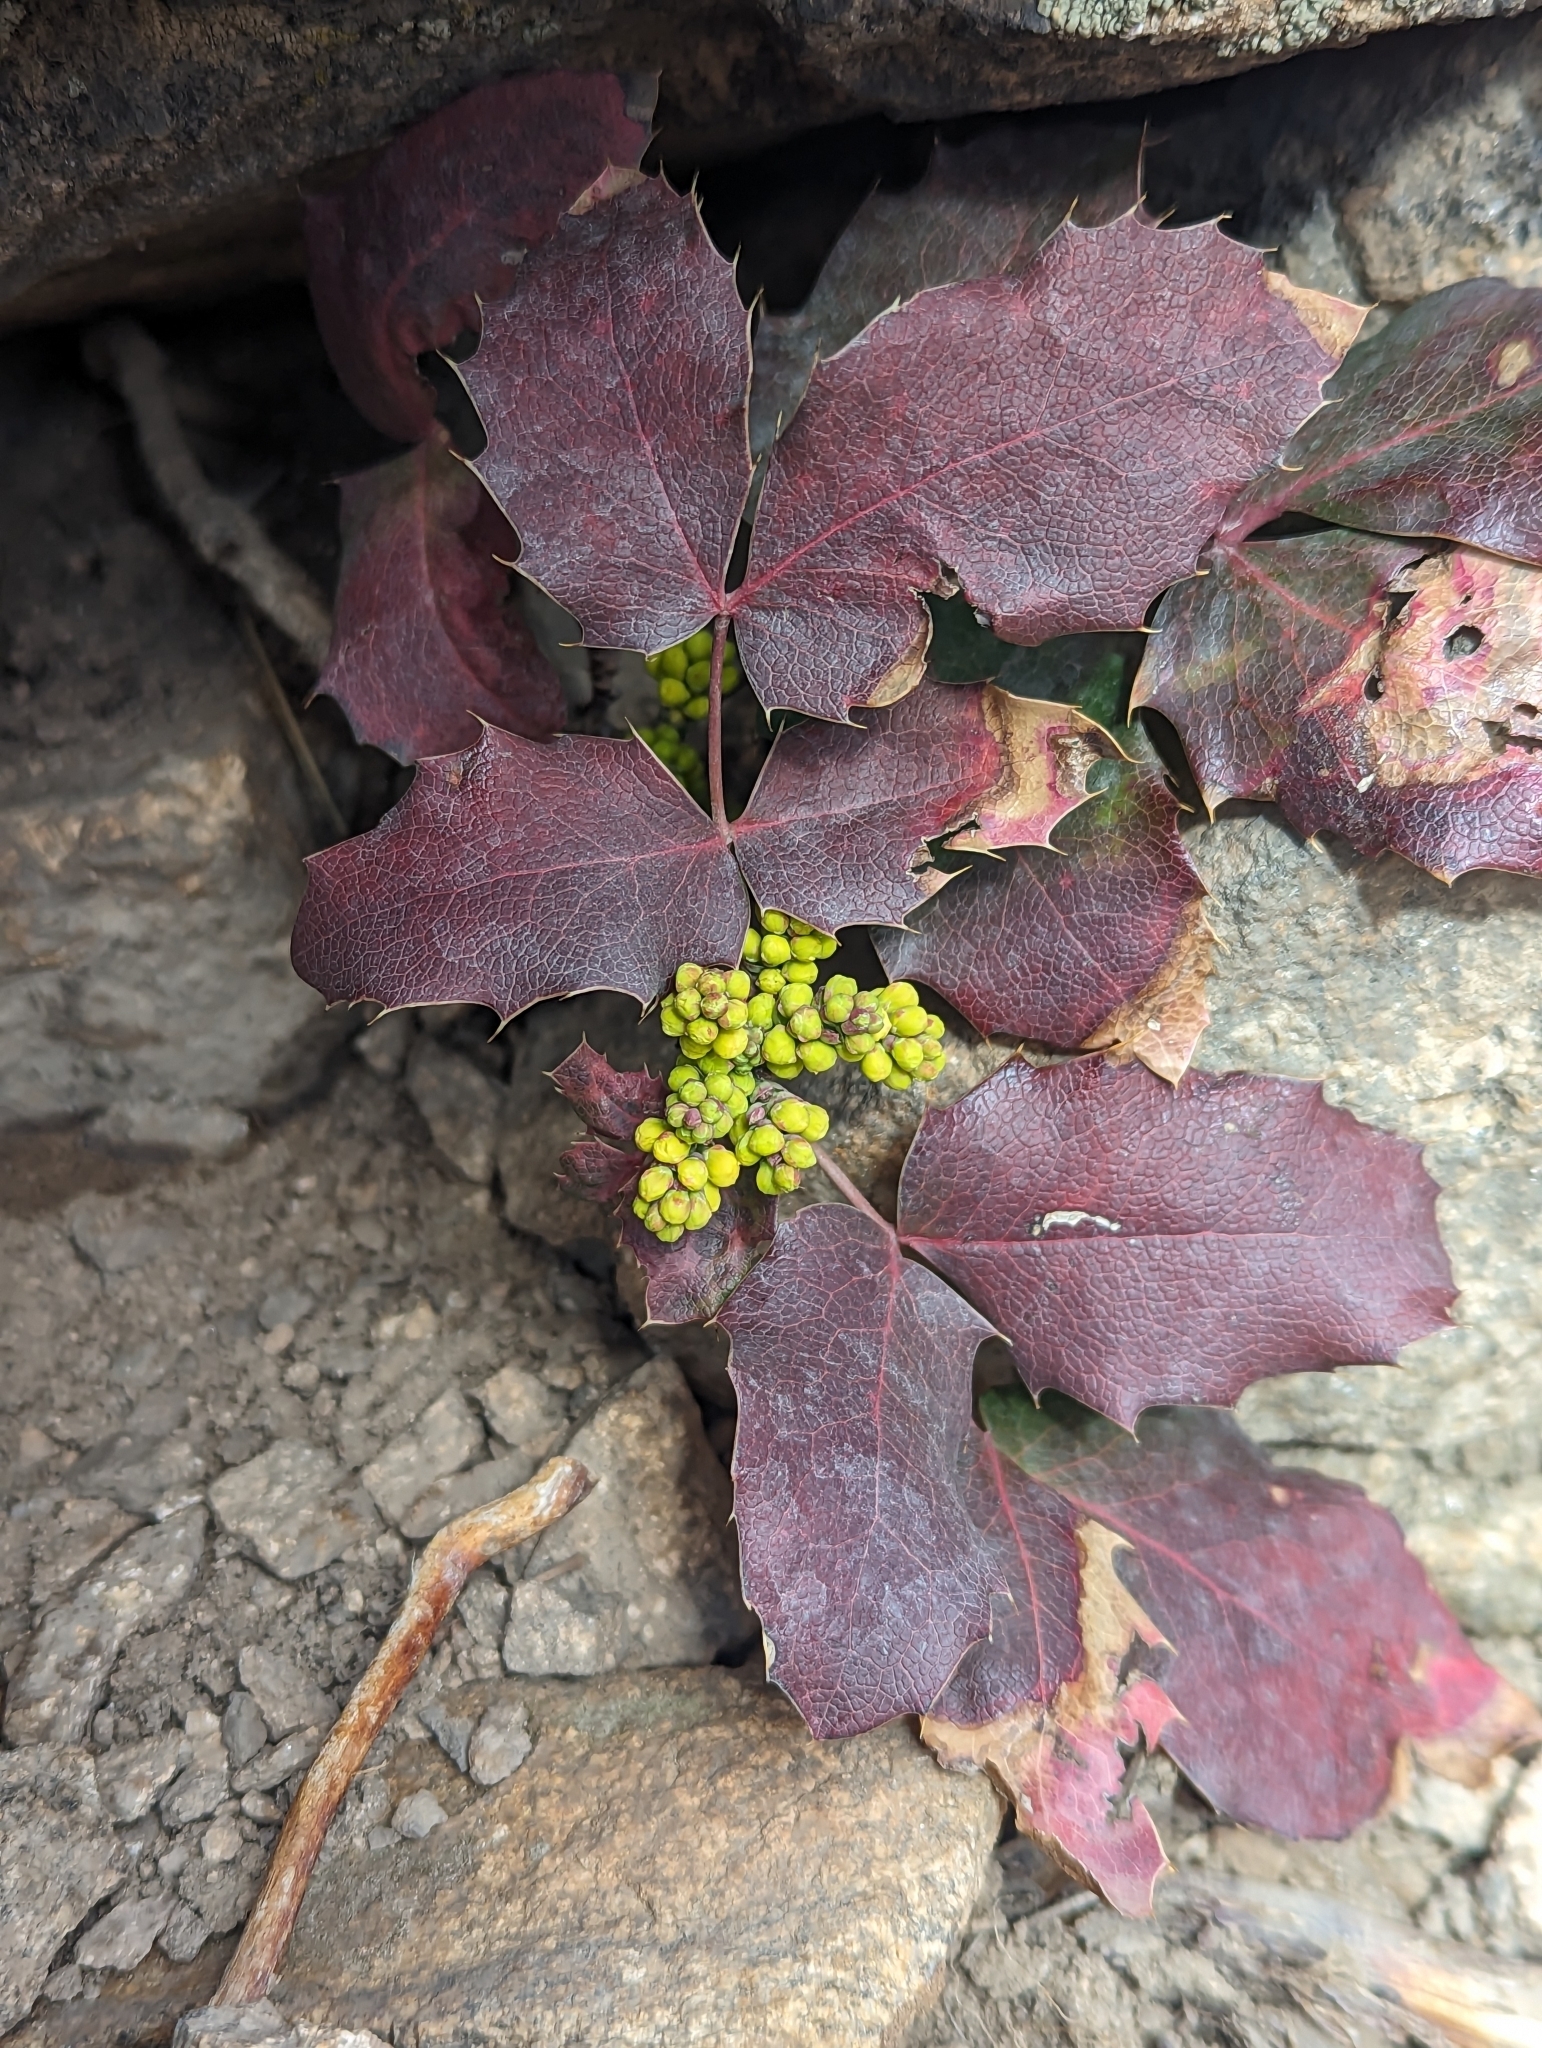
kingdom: Plantae
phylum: Tracheophyta
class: Magnoliopsida
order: Ranunculales
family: Berberidaceae
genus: Mahonia
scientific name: Mahonia repens
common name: Creeping oregon-grape
